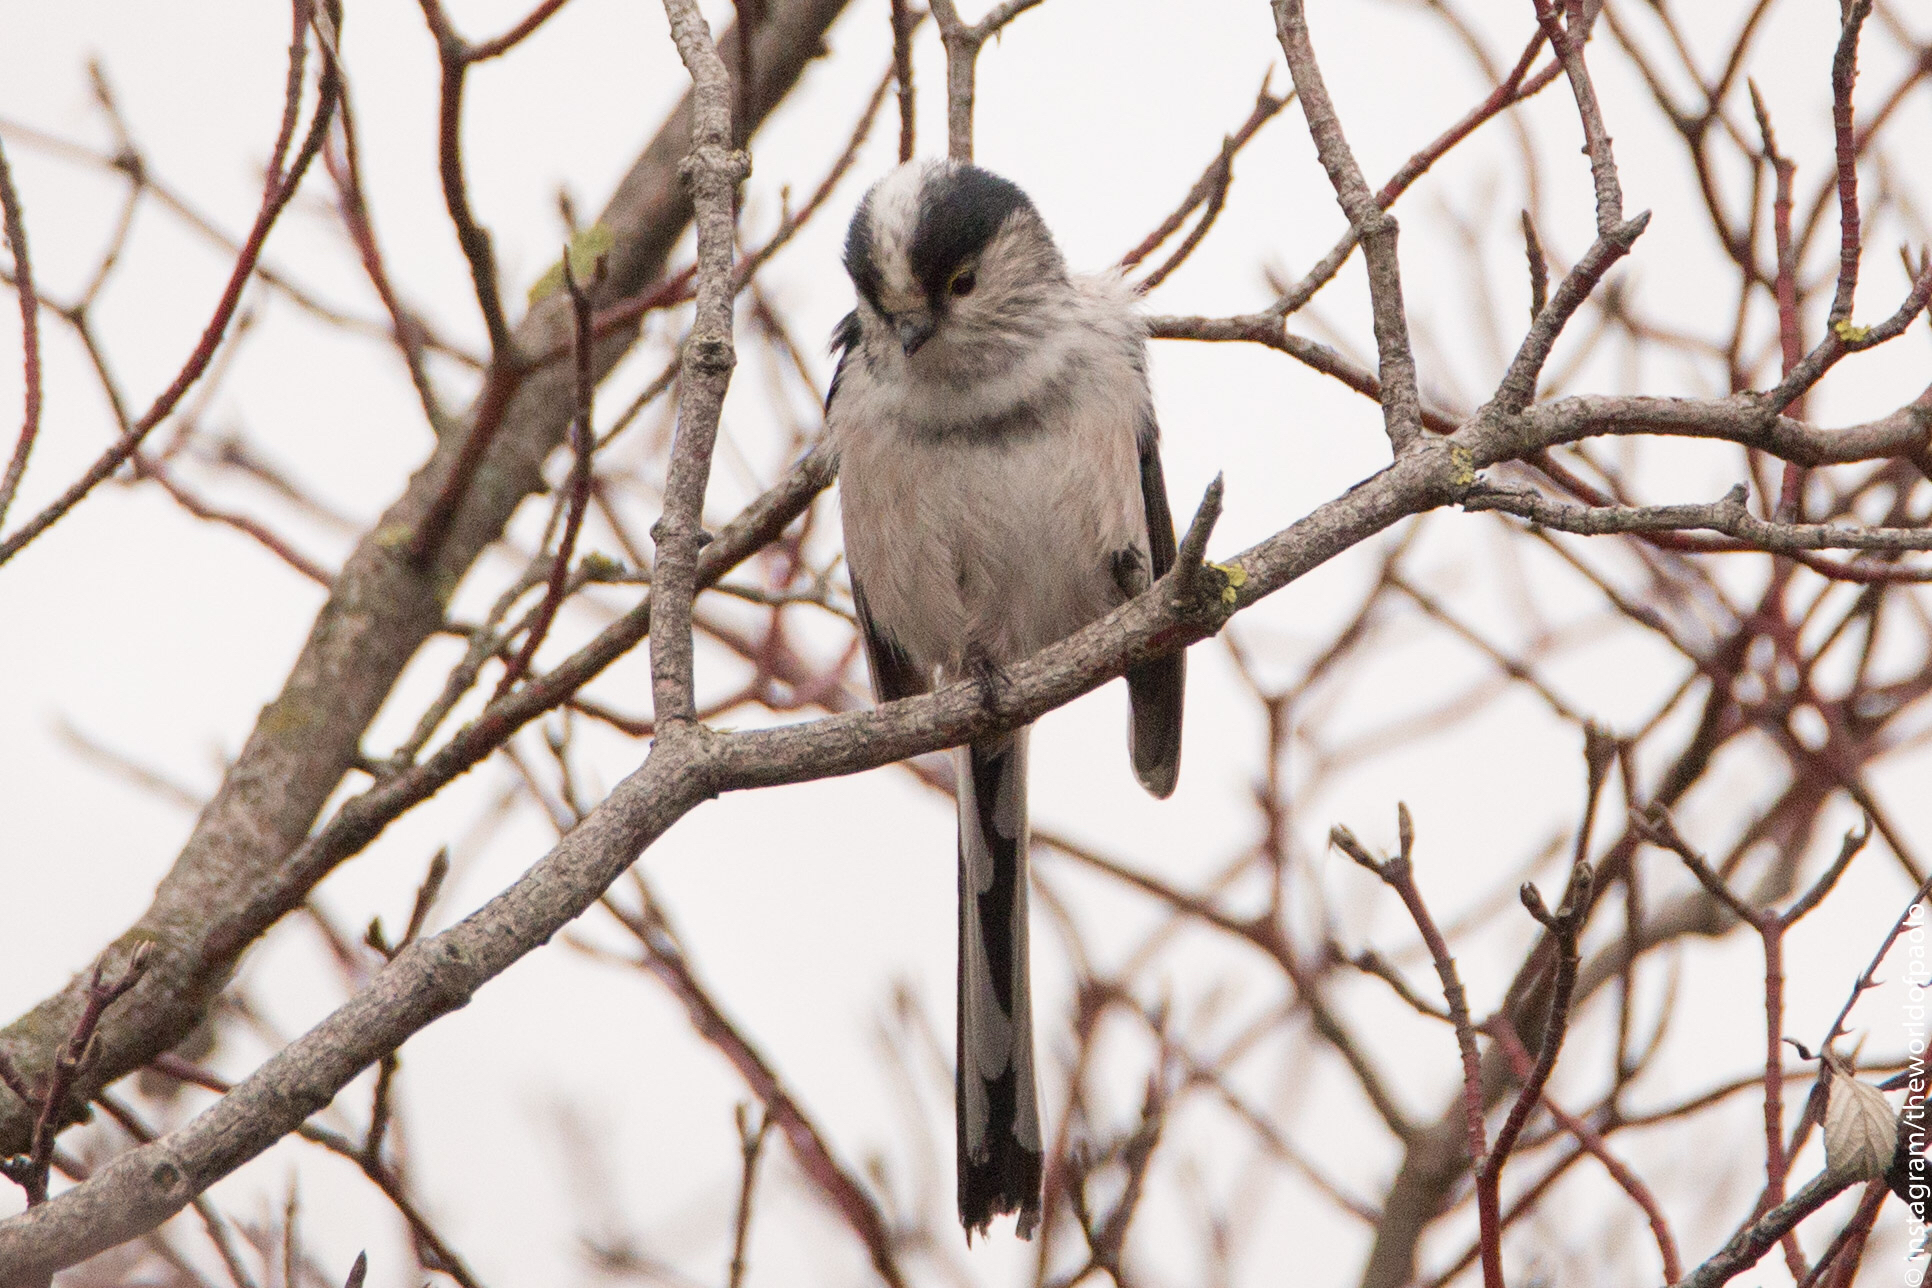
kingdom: Animalia
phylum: Chordata
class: Aves
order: Passeriformes
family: Aegithalidae
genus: Aegithalos
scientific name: Aegithalos caudatus
